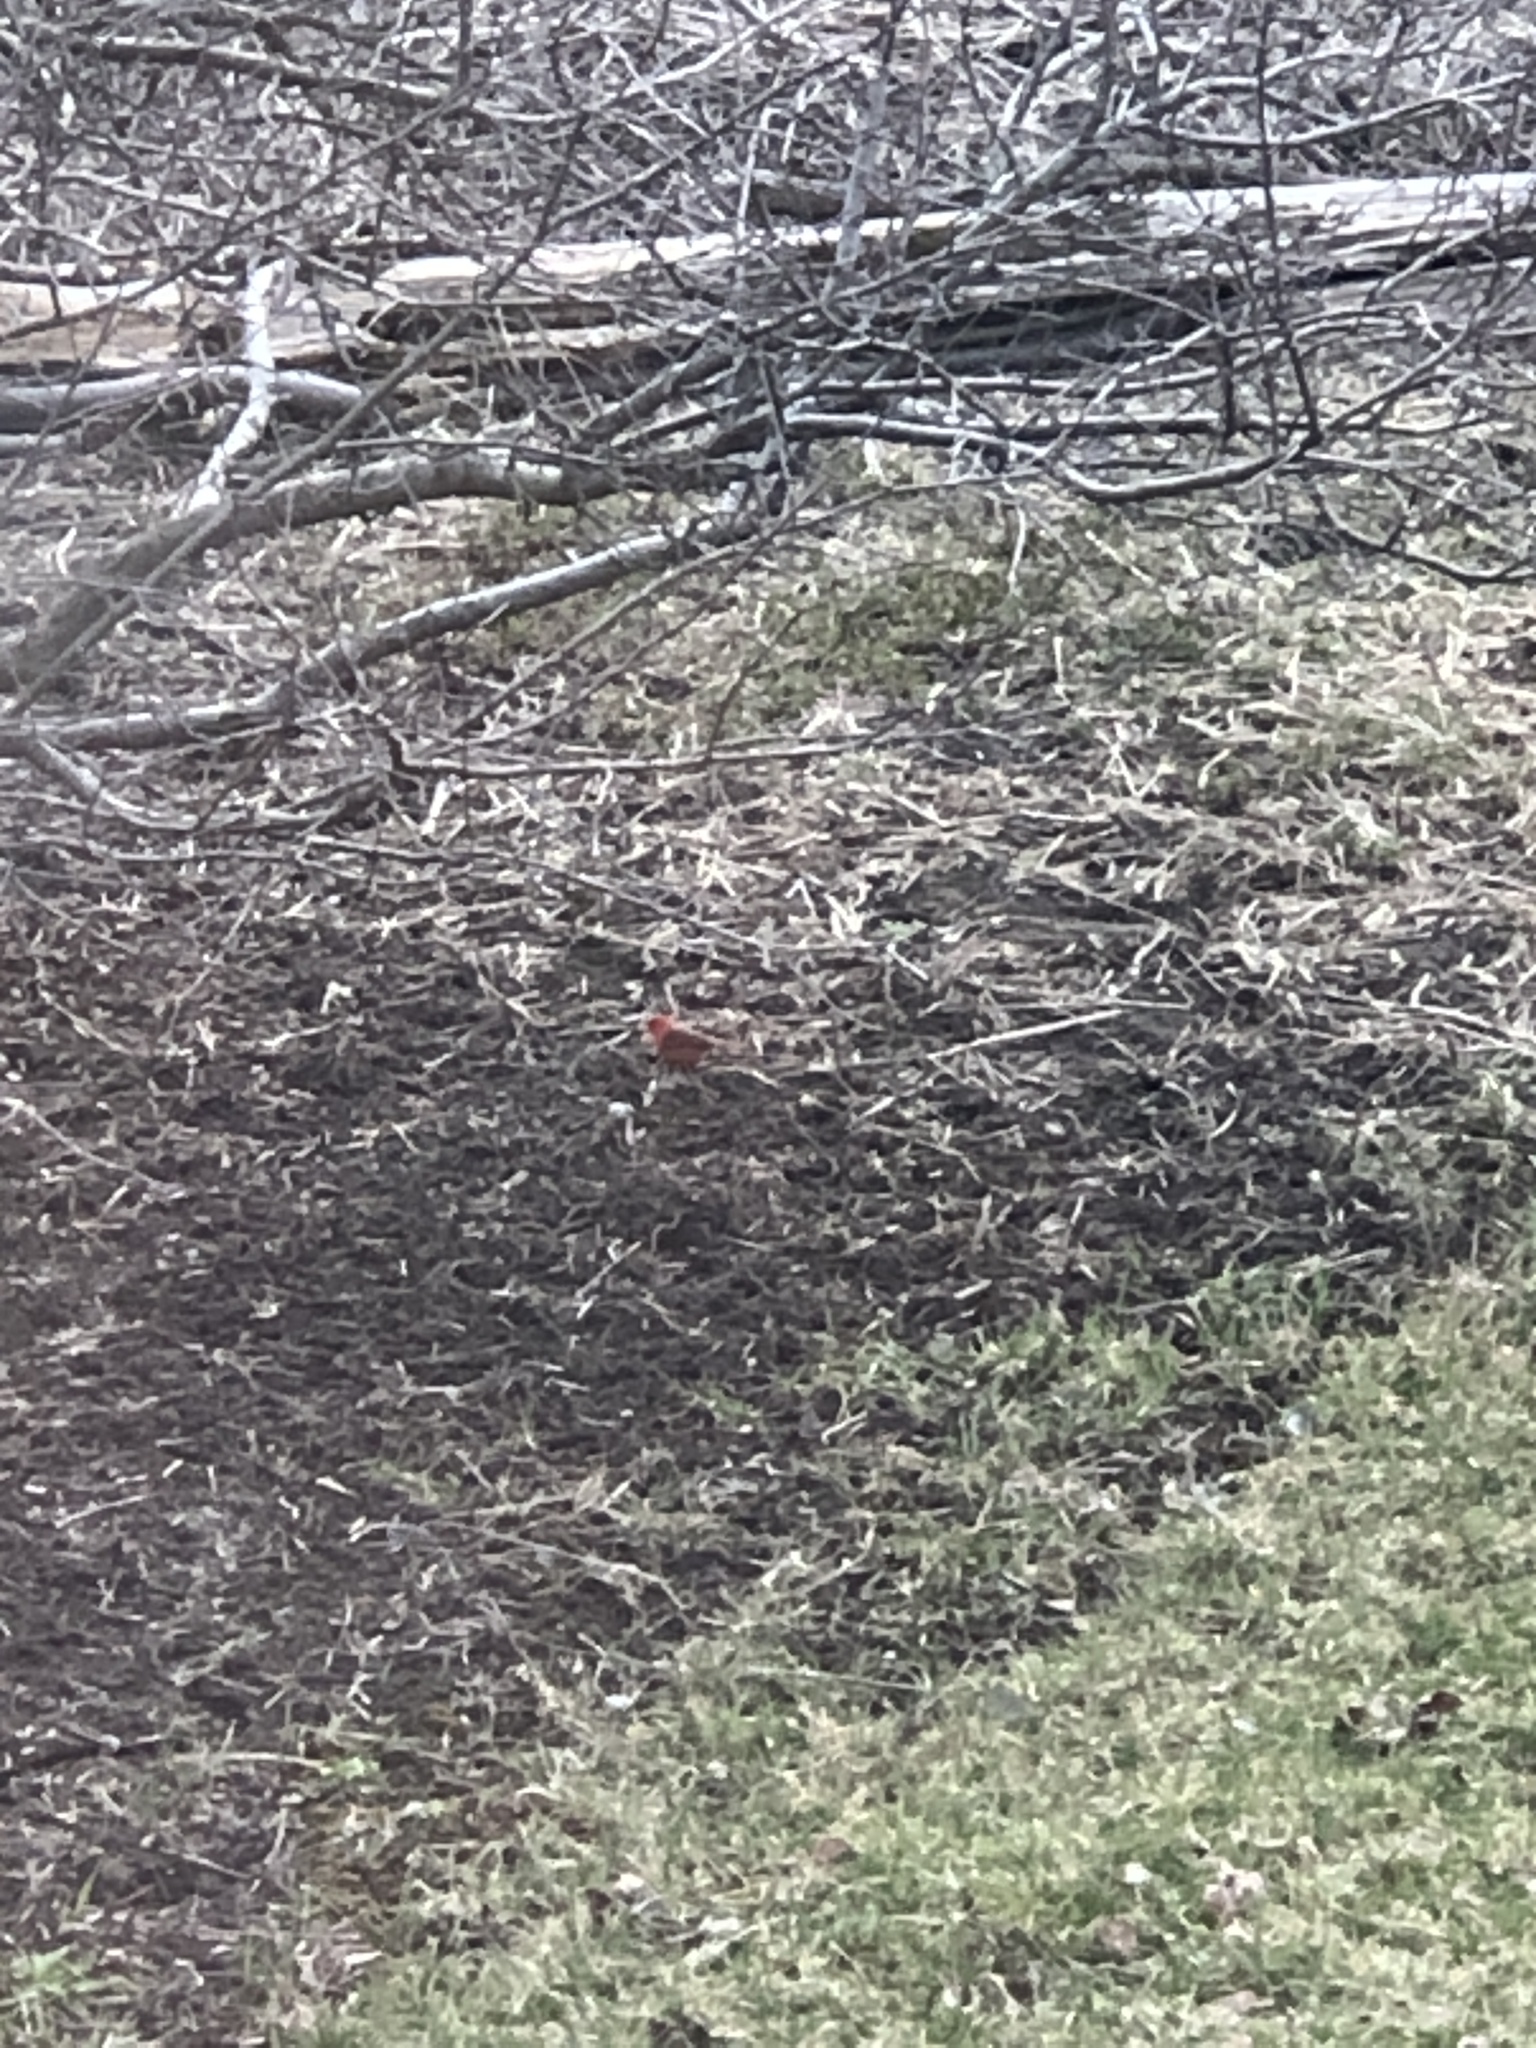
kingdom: Animalia
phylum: Chordata
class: Aves
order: Passeriformes
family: Cardinalidae
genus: Cardinalis
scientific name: Cardinalis cardinalis
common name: Northern cardinal
